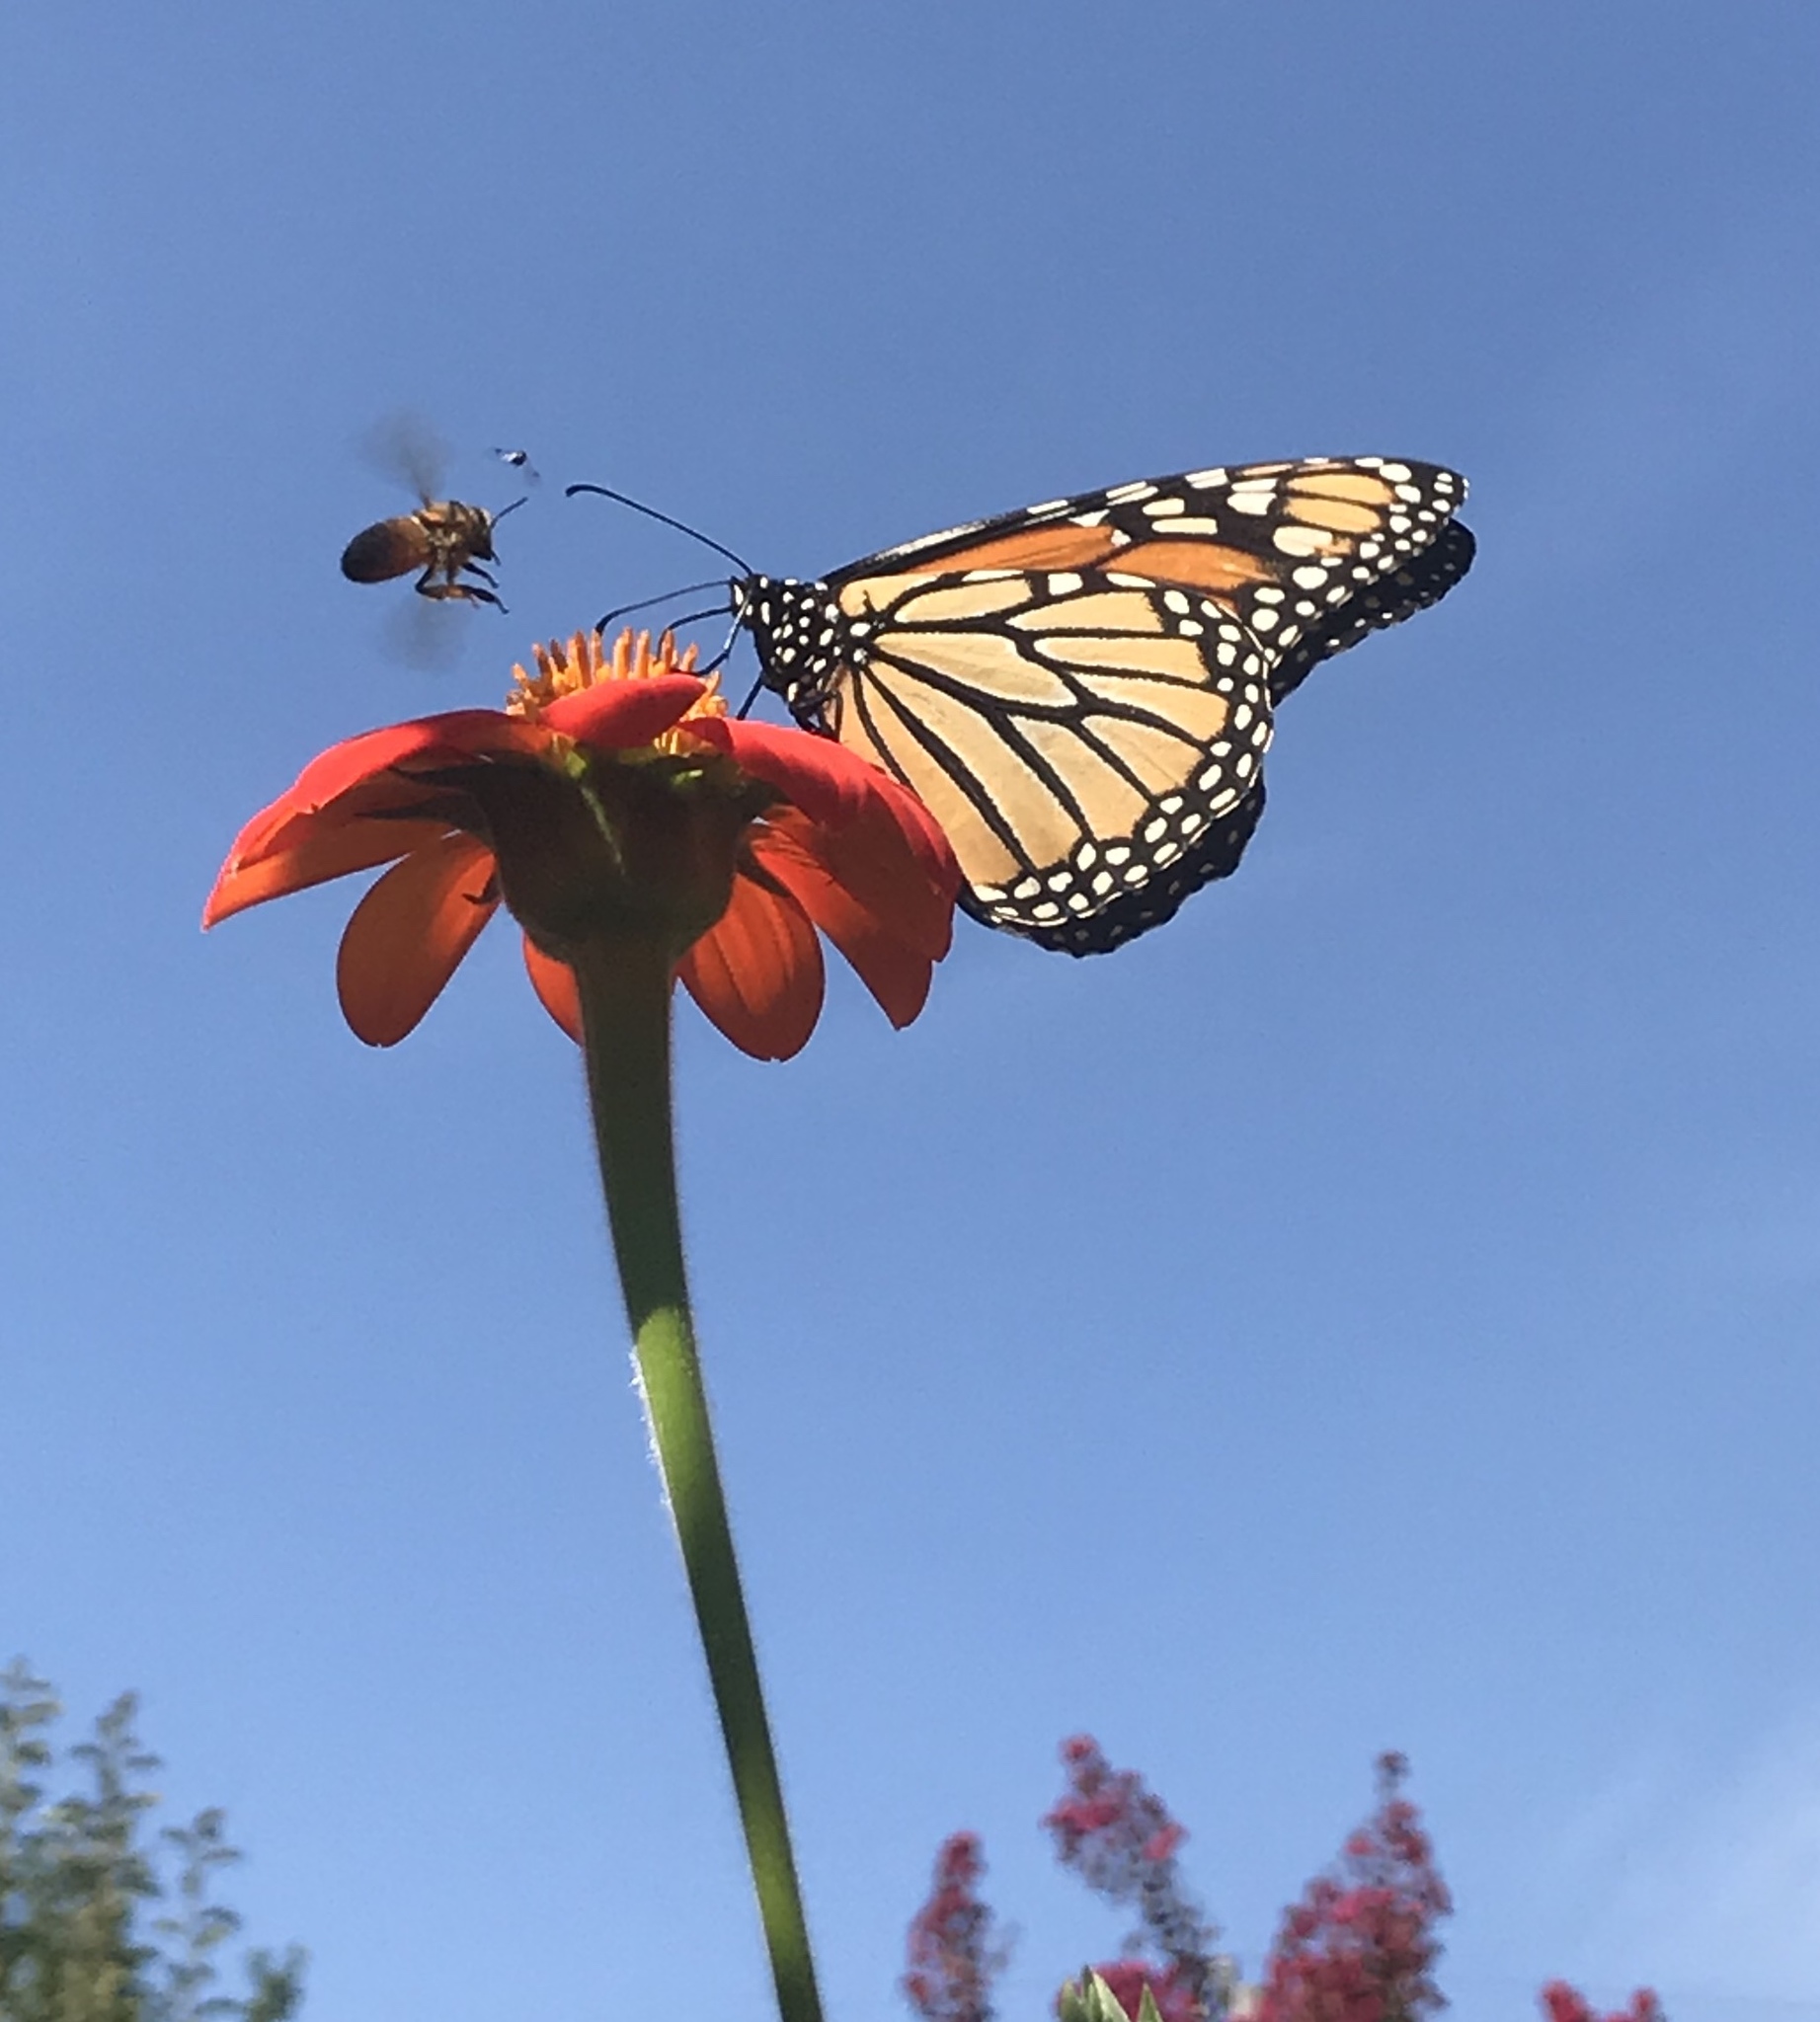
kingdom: Animalia
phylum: Arthropoda
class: Insecta
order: Lepidoptera
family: Nymphalidae
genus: Danaus
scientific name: Danaus plexippus
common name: Monarch
